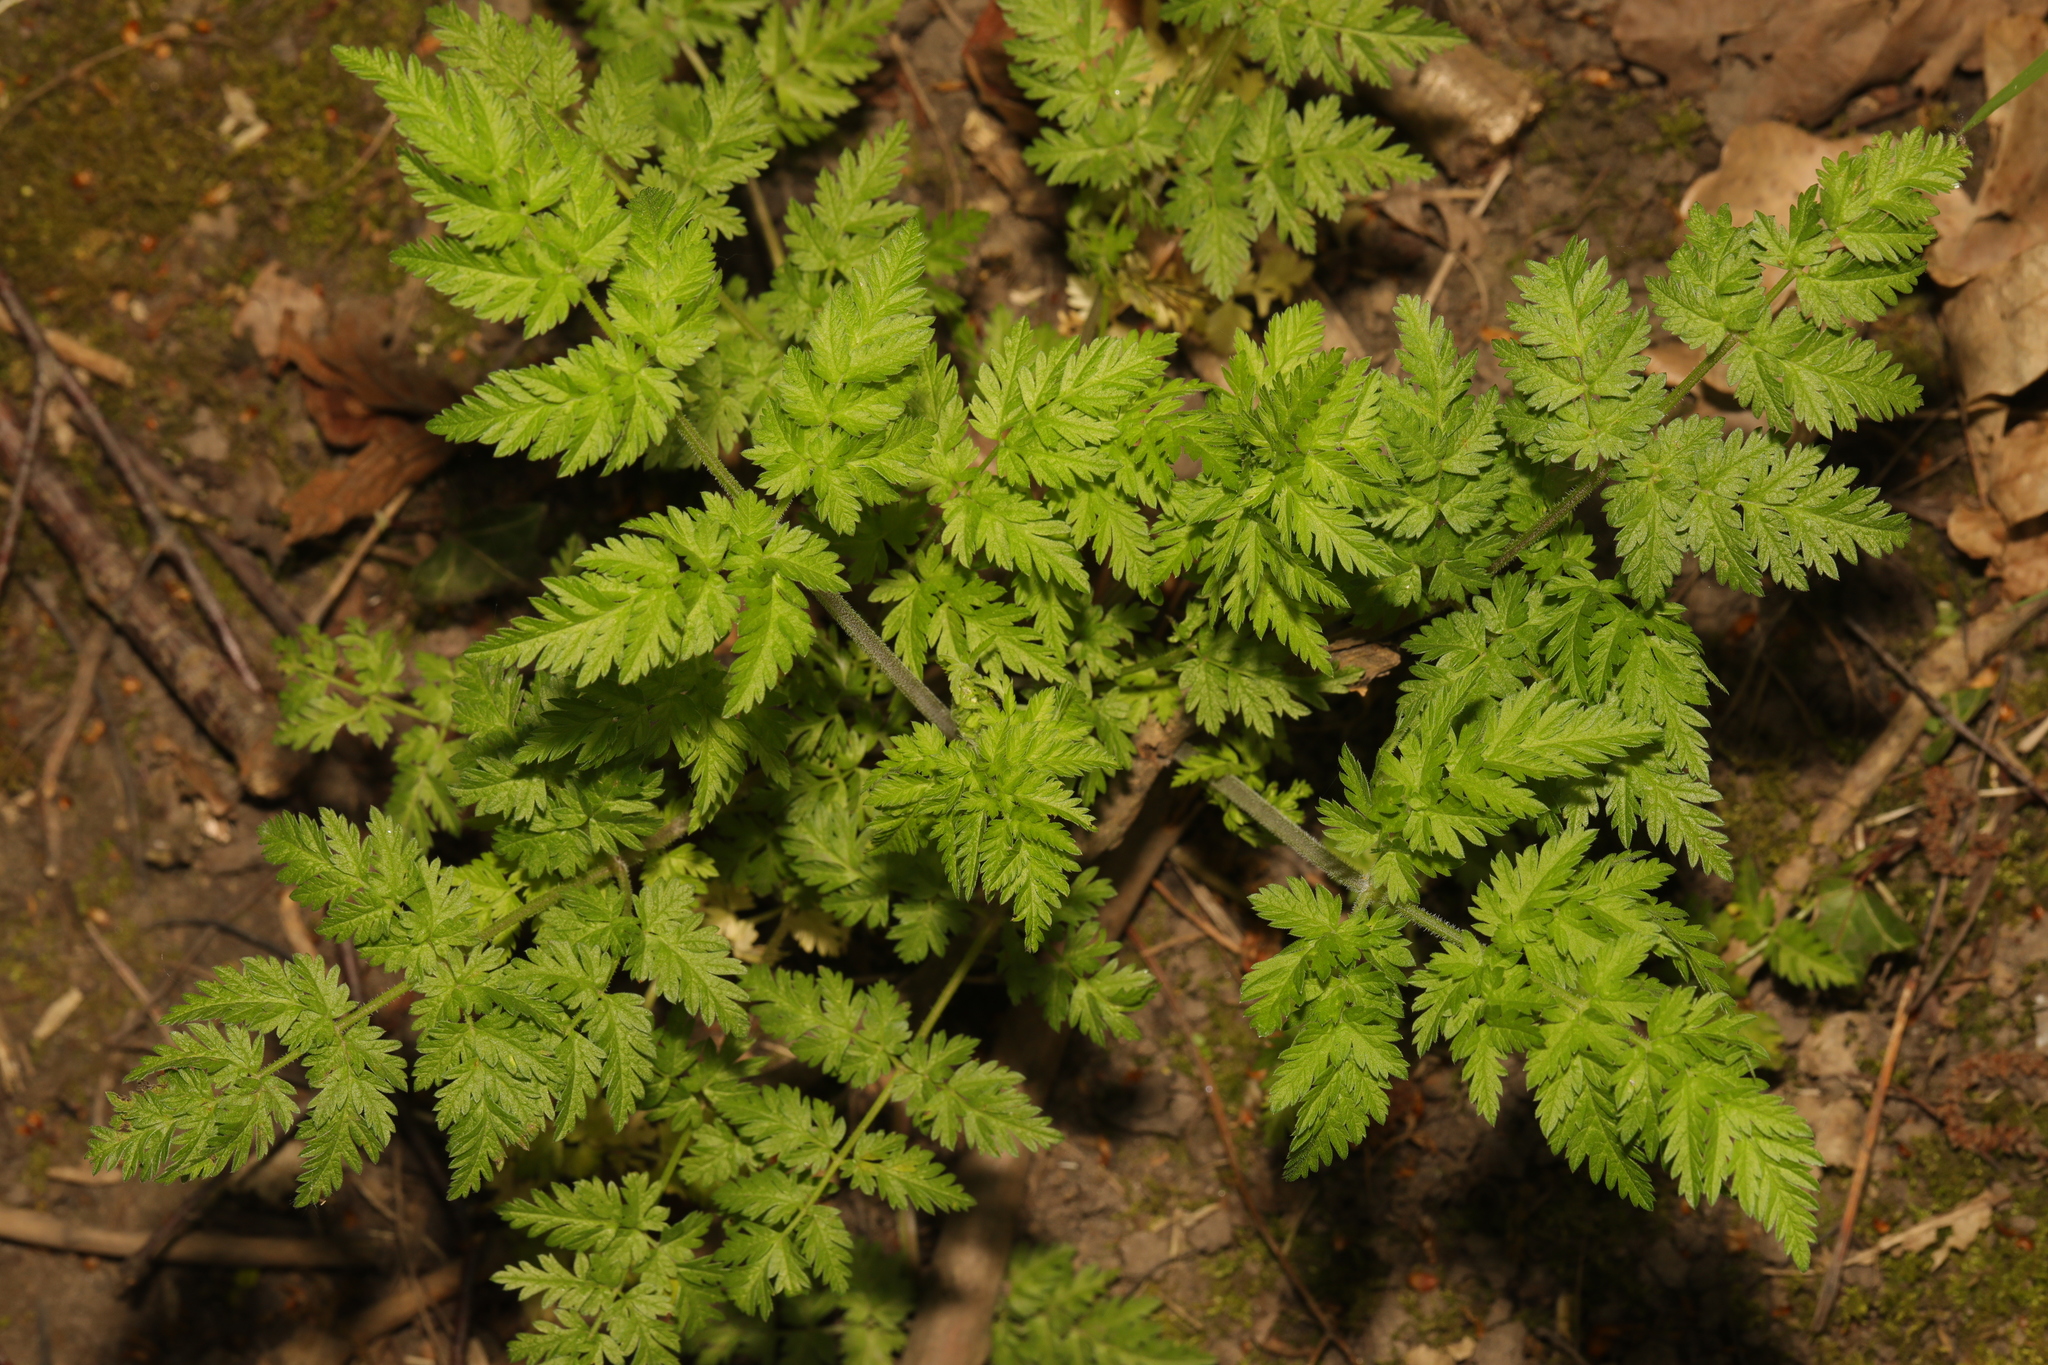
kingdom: Plantae
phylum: Tracheophyta
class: Magnoliopsida
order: Apiales
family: Apiaceae
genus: Anthriscus
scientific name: Anthriscus sylvestris
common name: Cow parsley
